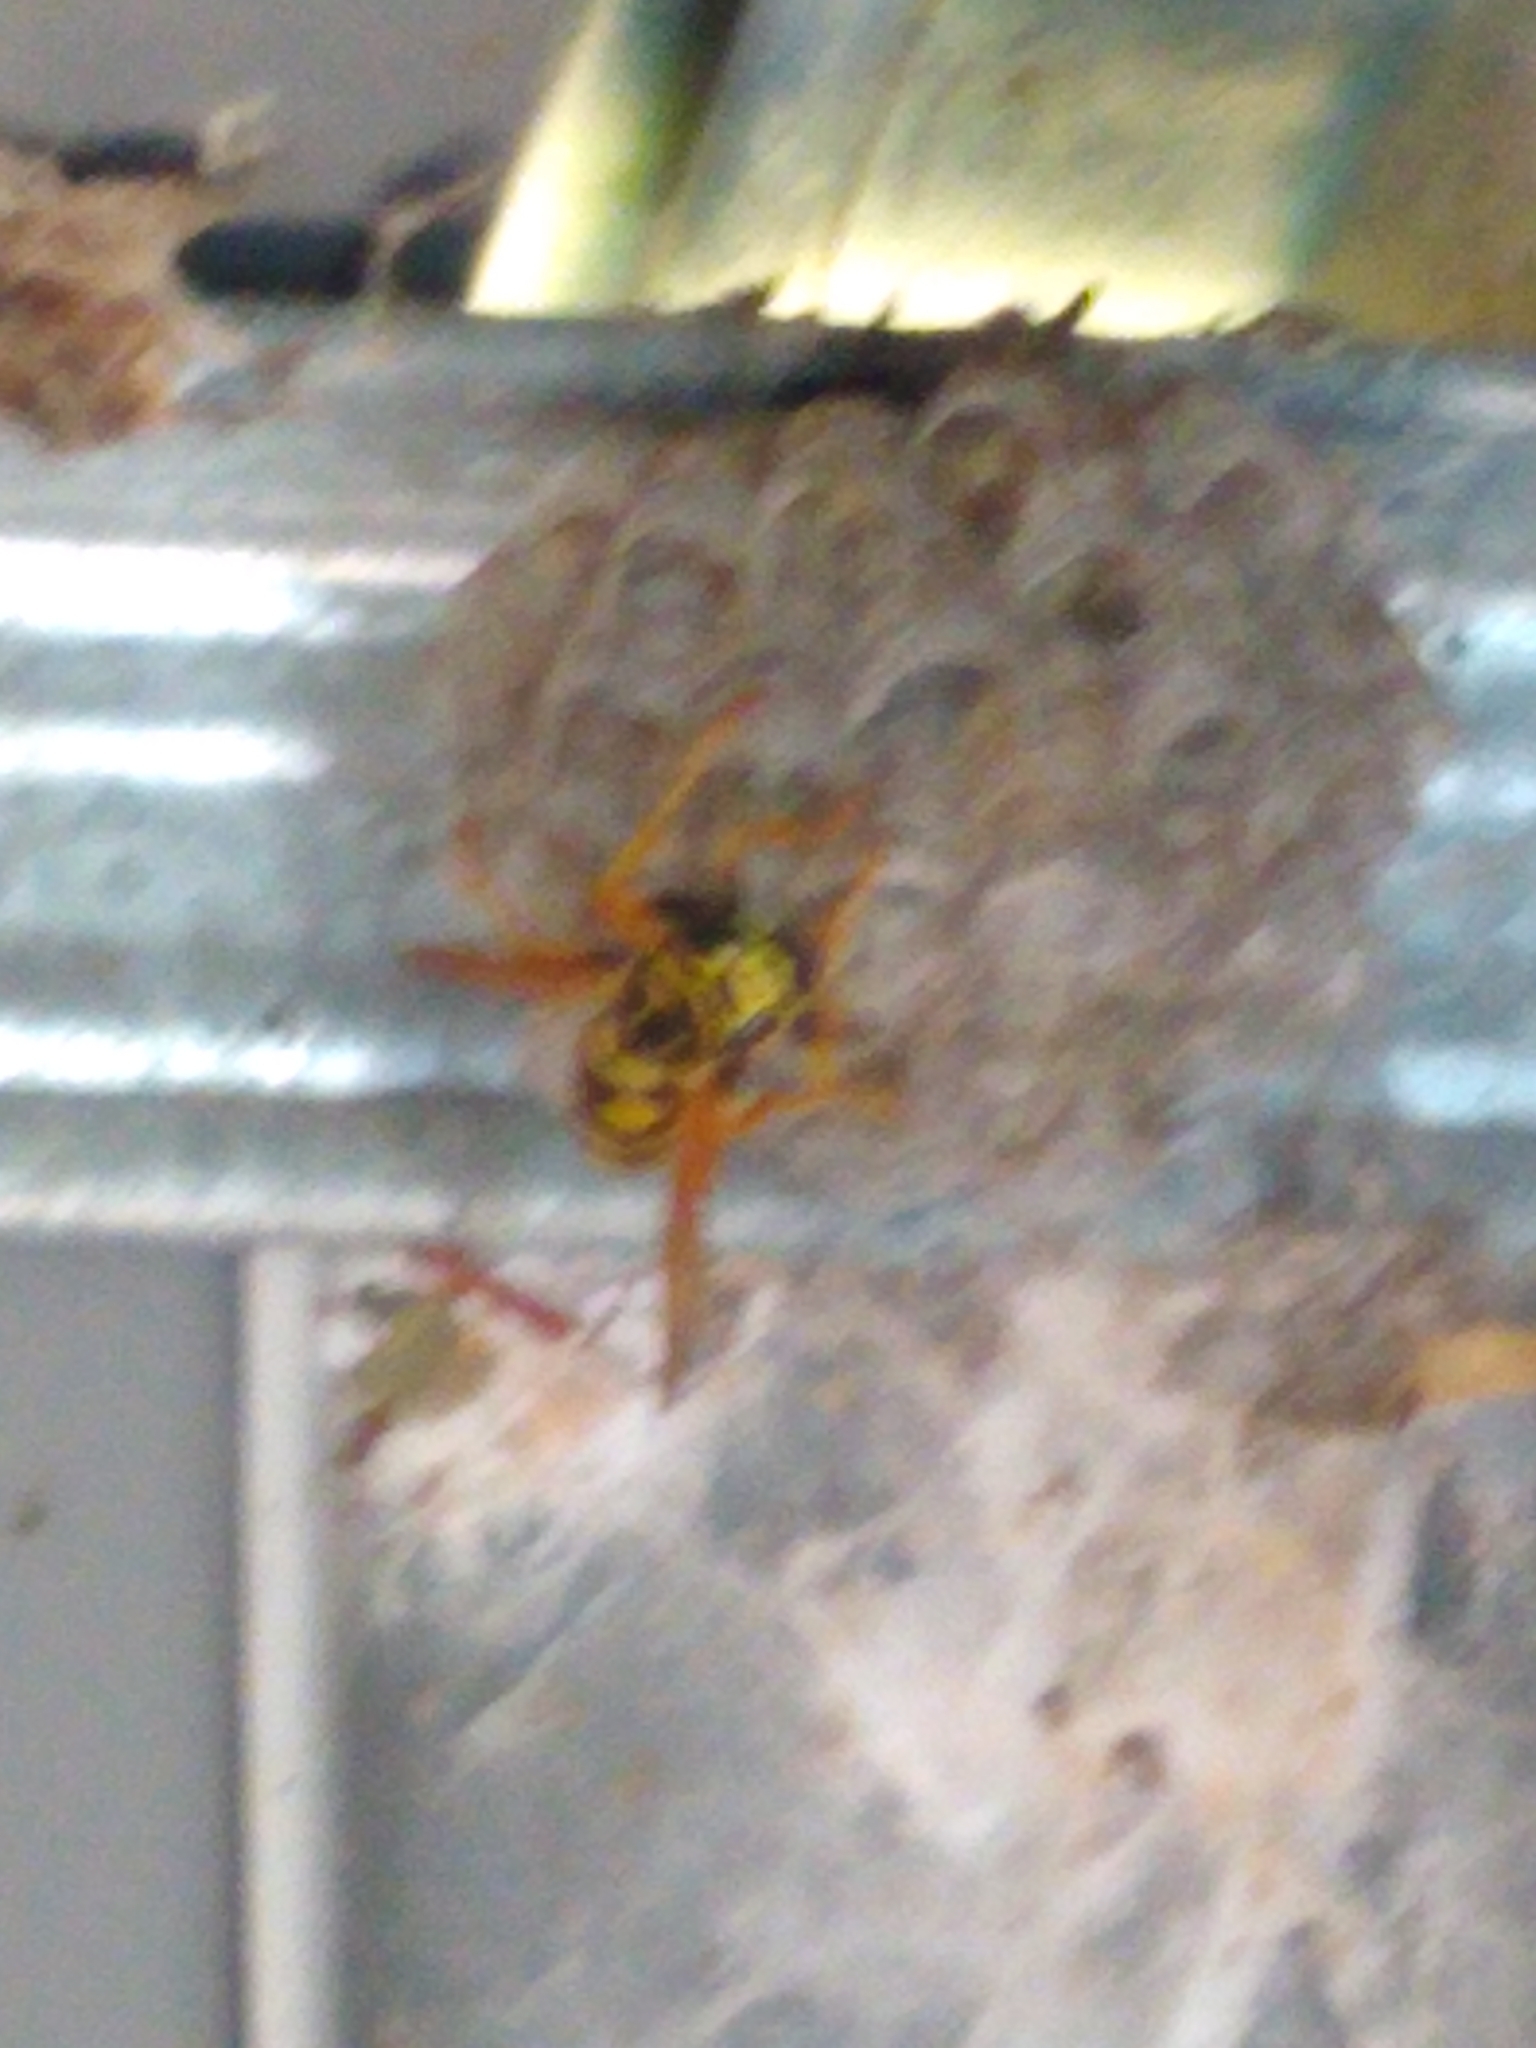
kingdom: Animalia
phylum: Arthropoda
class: Insecta
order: Hymenoptera
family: Eumenidae
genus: Polistes
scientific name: Polistes dominula
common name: Paper wasp
